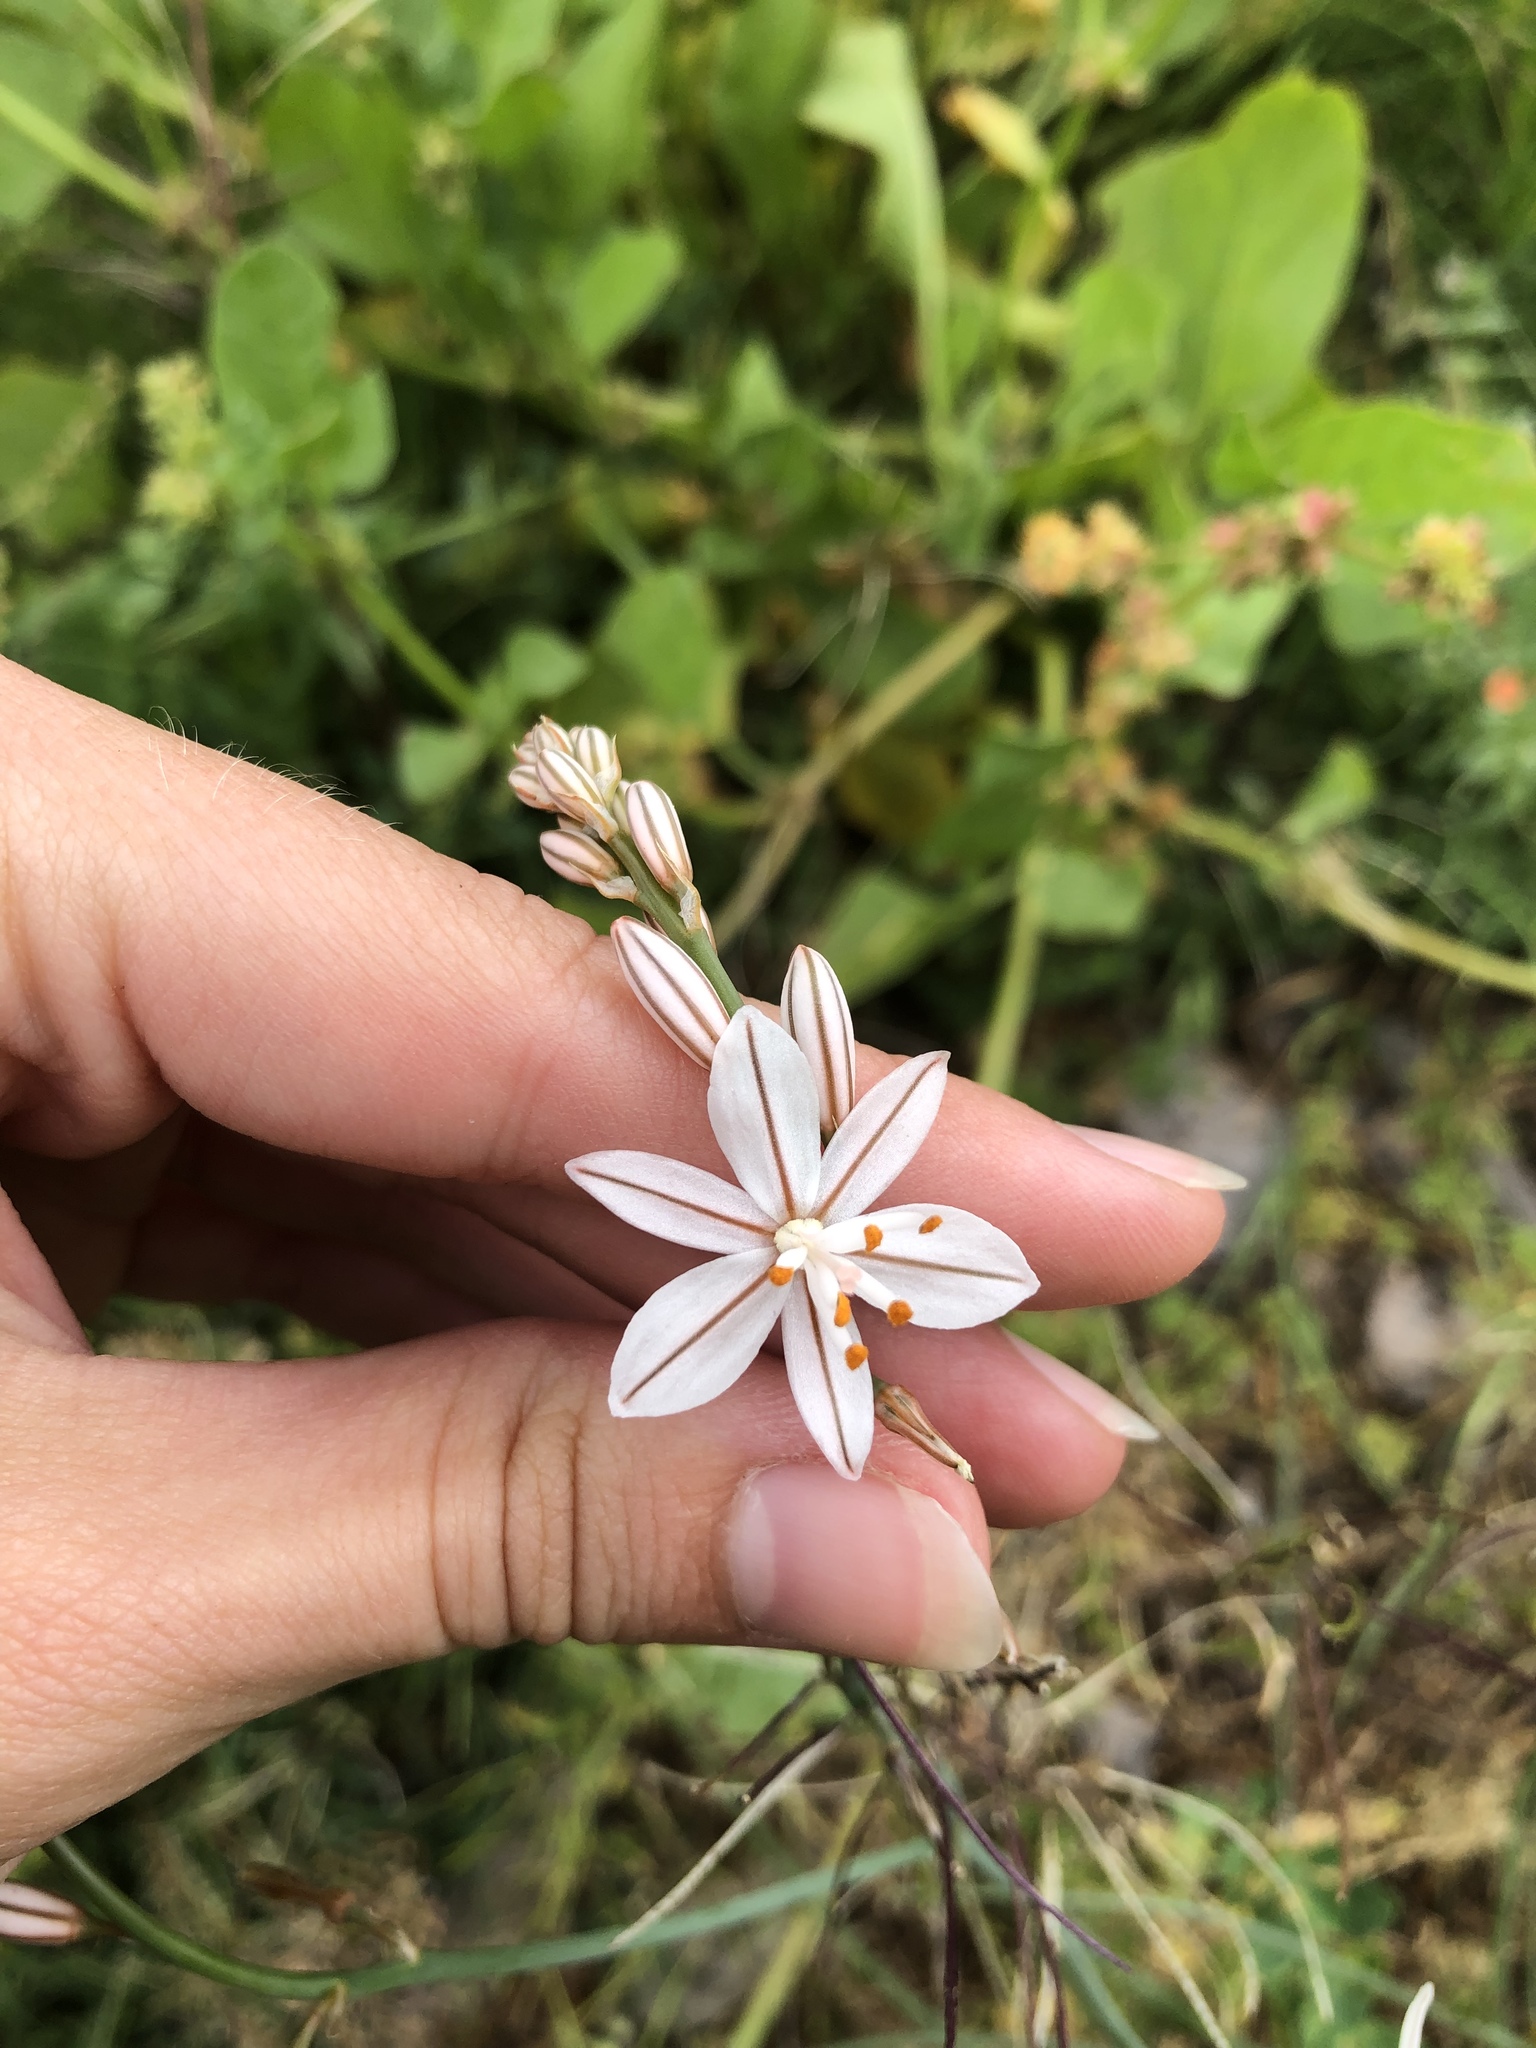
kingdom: Plantae
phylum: Tracheophyta
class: Liliopsida
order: Asparagales
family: Asphodelaceae
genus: Asphodelus
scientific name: Asphodelus fistulosus
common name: Onionweed
